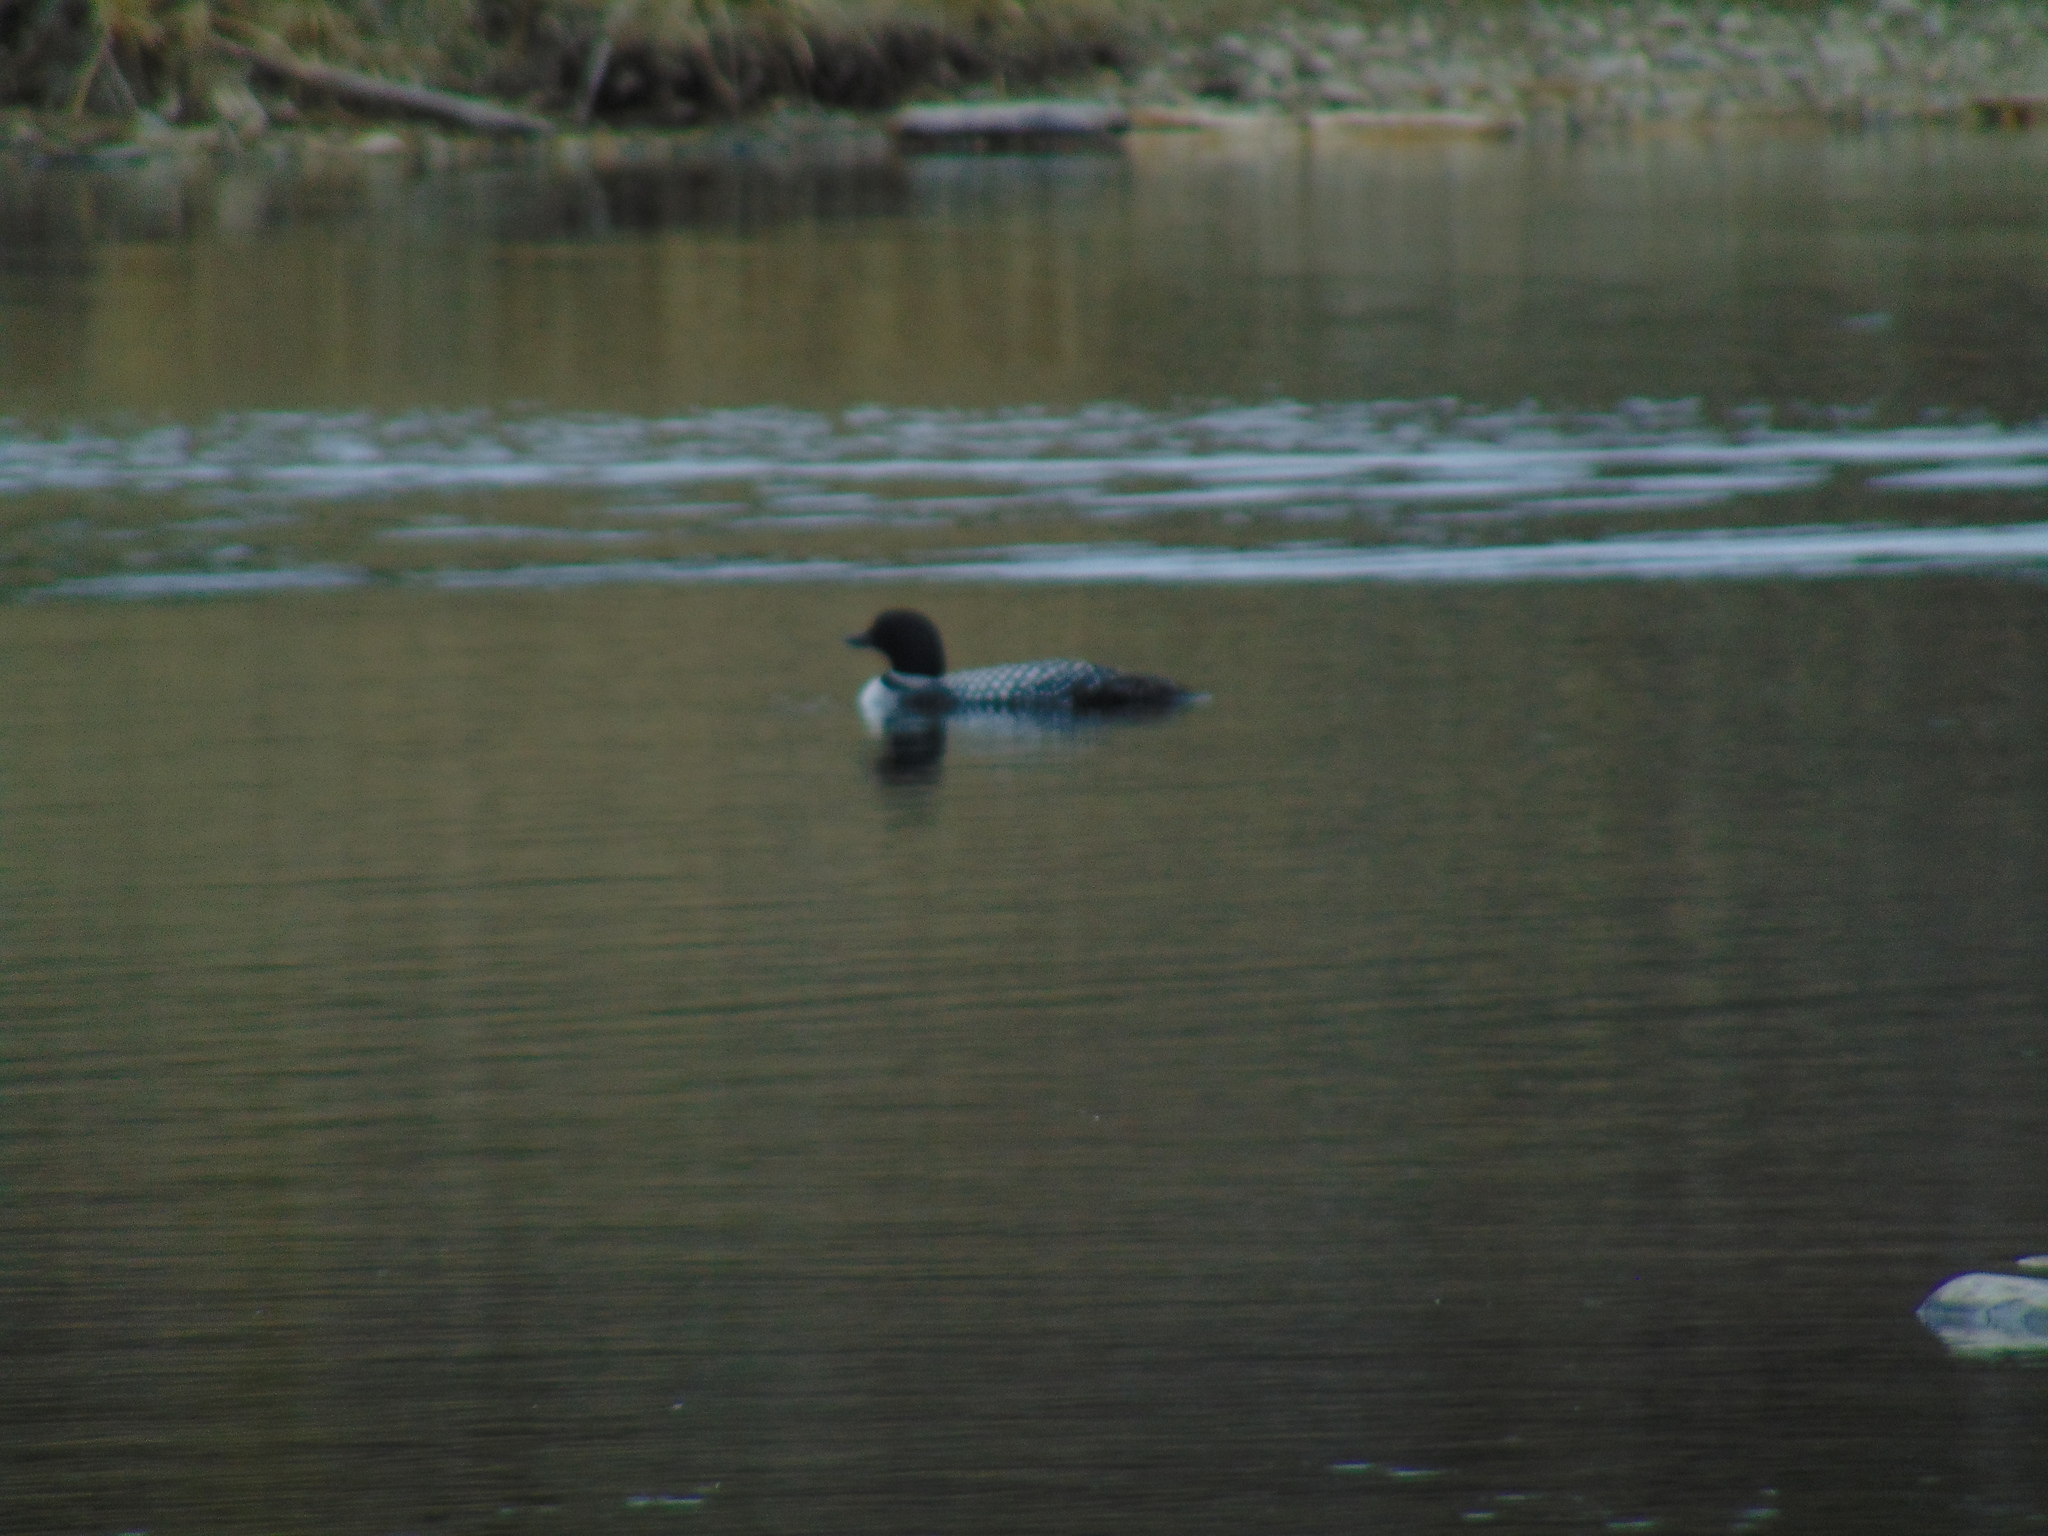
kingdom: Animalia
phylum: Chordata
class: Aves
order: Gaviiformes
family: Gaviidae
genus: Gavia
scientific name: Gavia immer
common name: Common loon
